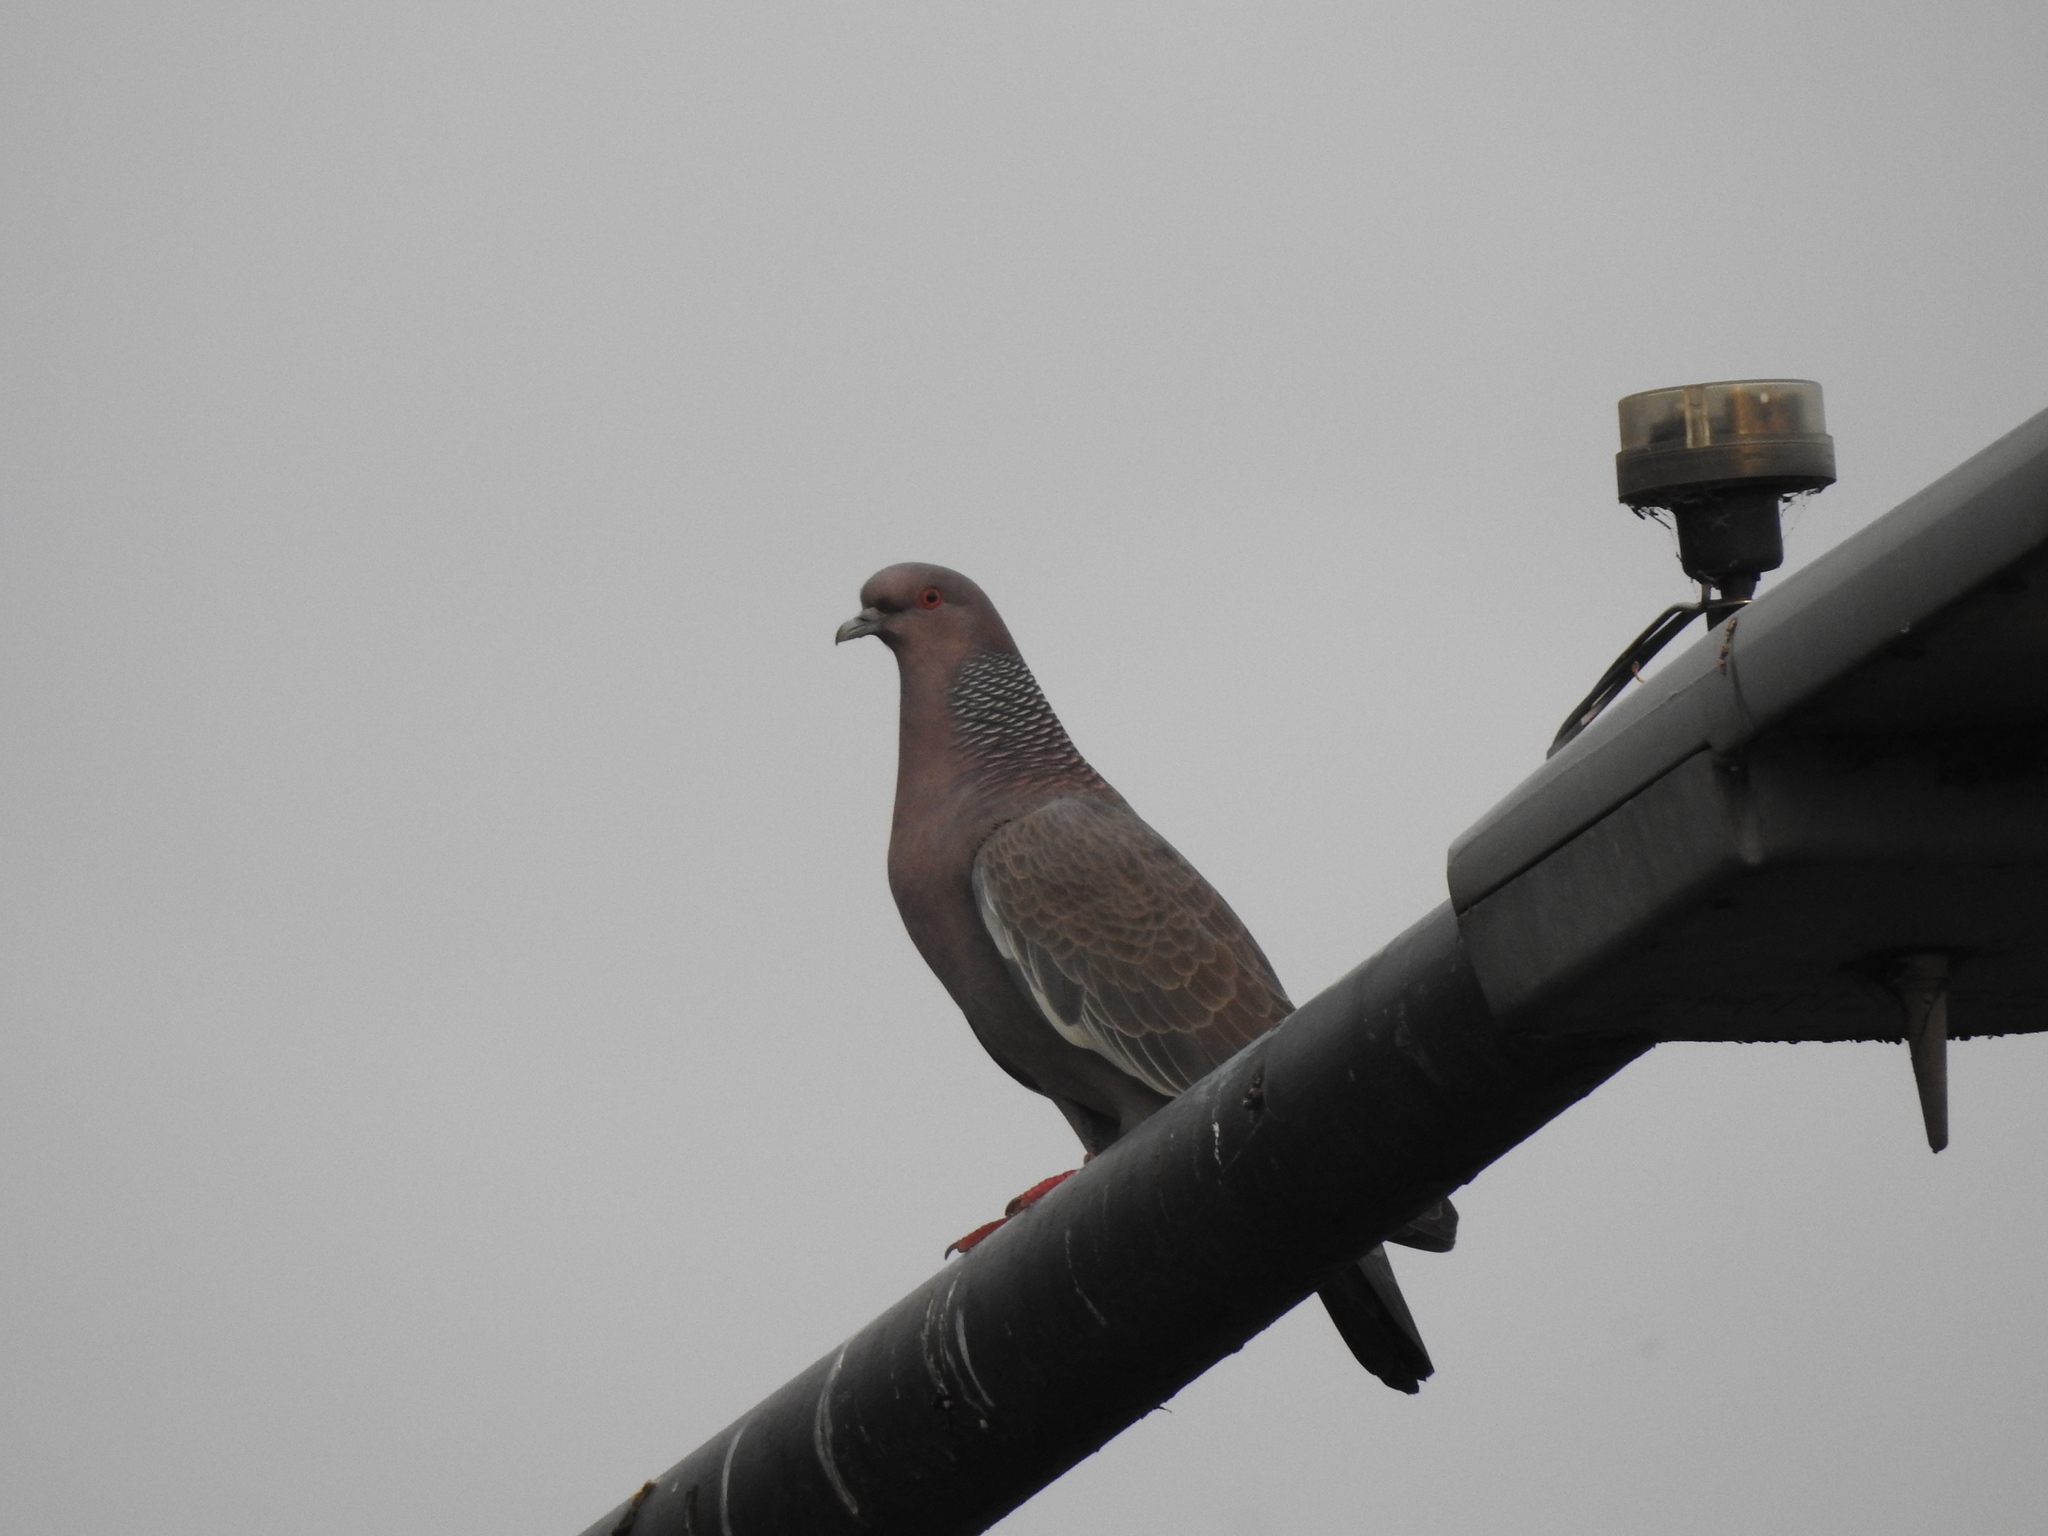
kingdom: Animalia
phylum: Chordata
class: Aves
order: Columbiformes
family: Columbidae
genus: Patagioenas
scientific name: Patagioenas picazuro
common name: Picazuro pigeon
